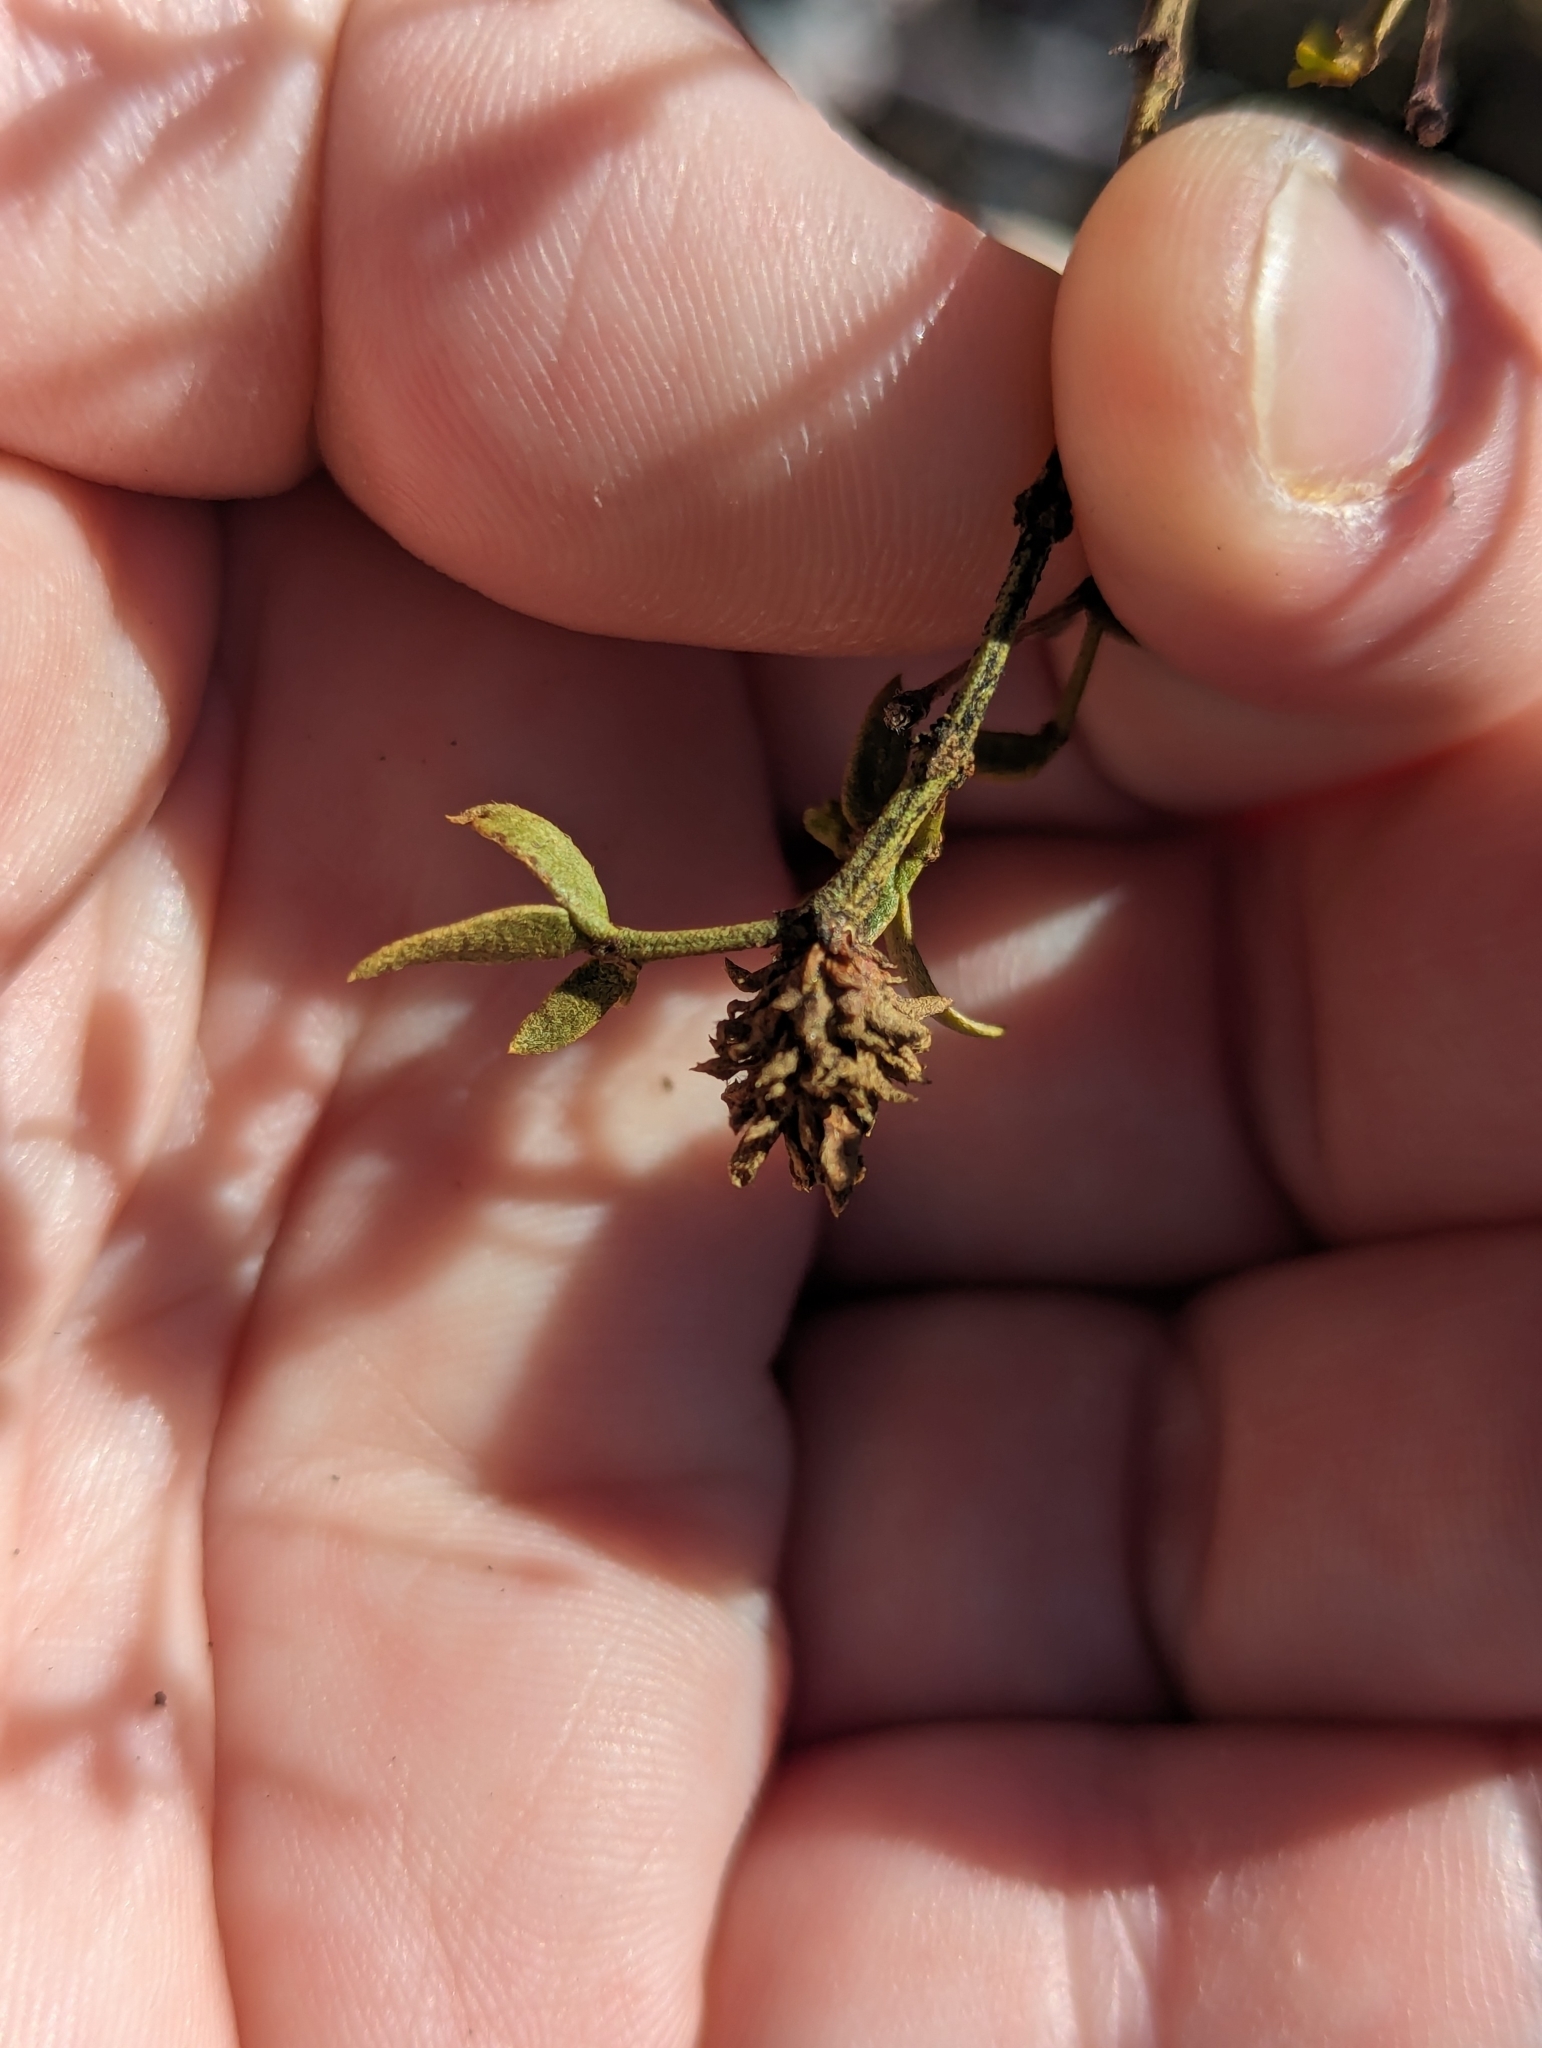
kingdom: Animalia
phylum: Arthropoda
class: Insecta
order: Diptera
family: Cecidomyiidae
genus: Asphondylia
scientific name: Asphondylia rosetta
